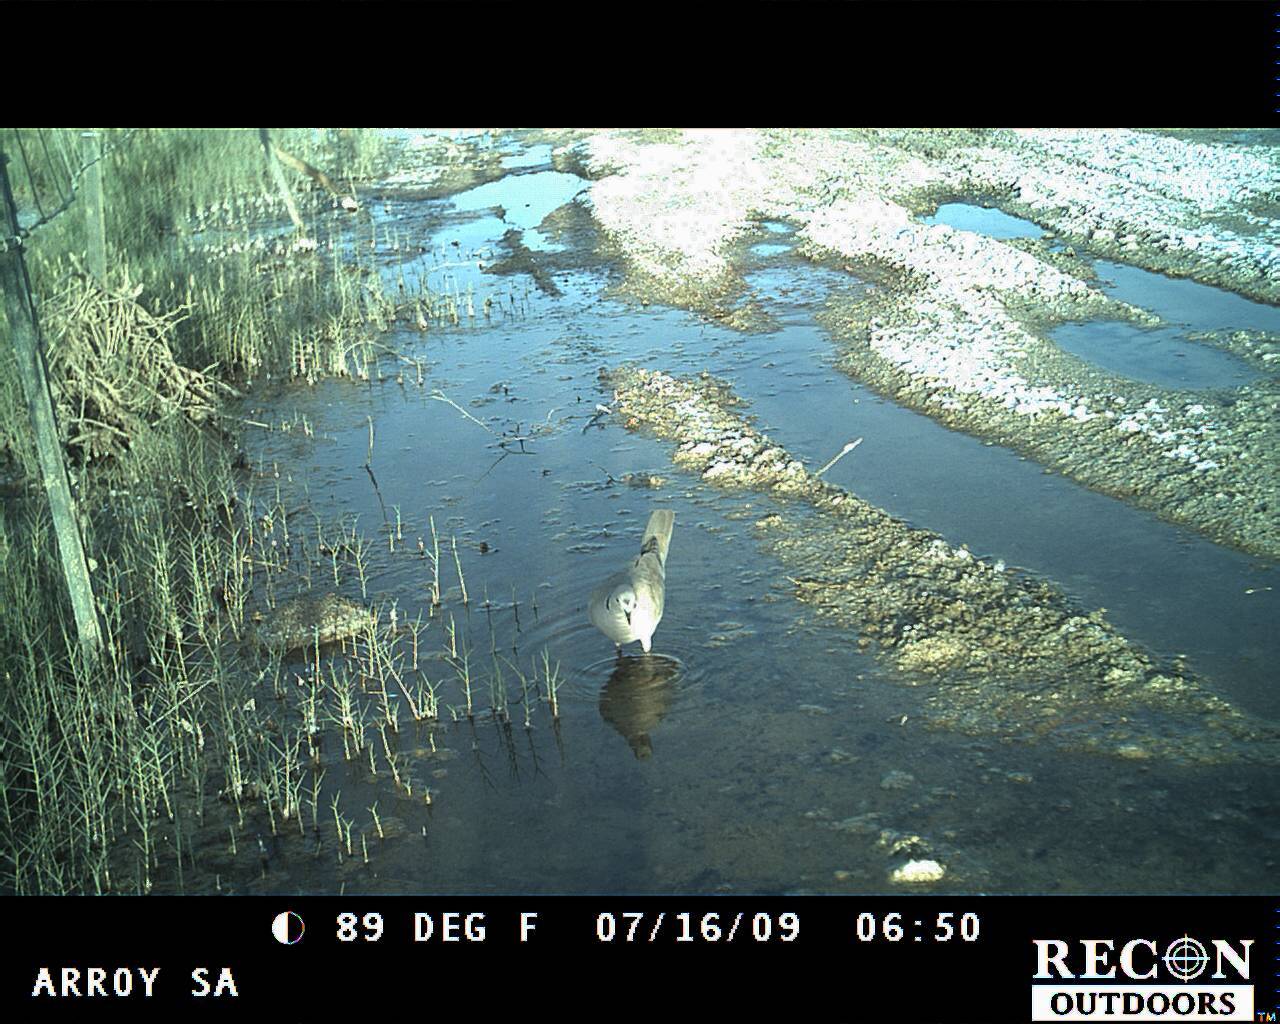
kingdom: Animalia
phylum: Chordata
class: Aves
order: Columbiformes
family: Columbidae
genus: Streptopelia
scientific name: Streptopelia decaocto
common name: Eurasian collared dove
